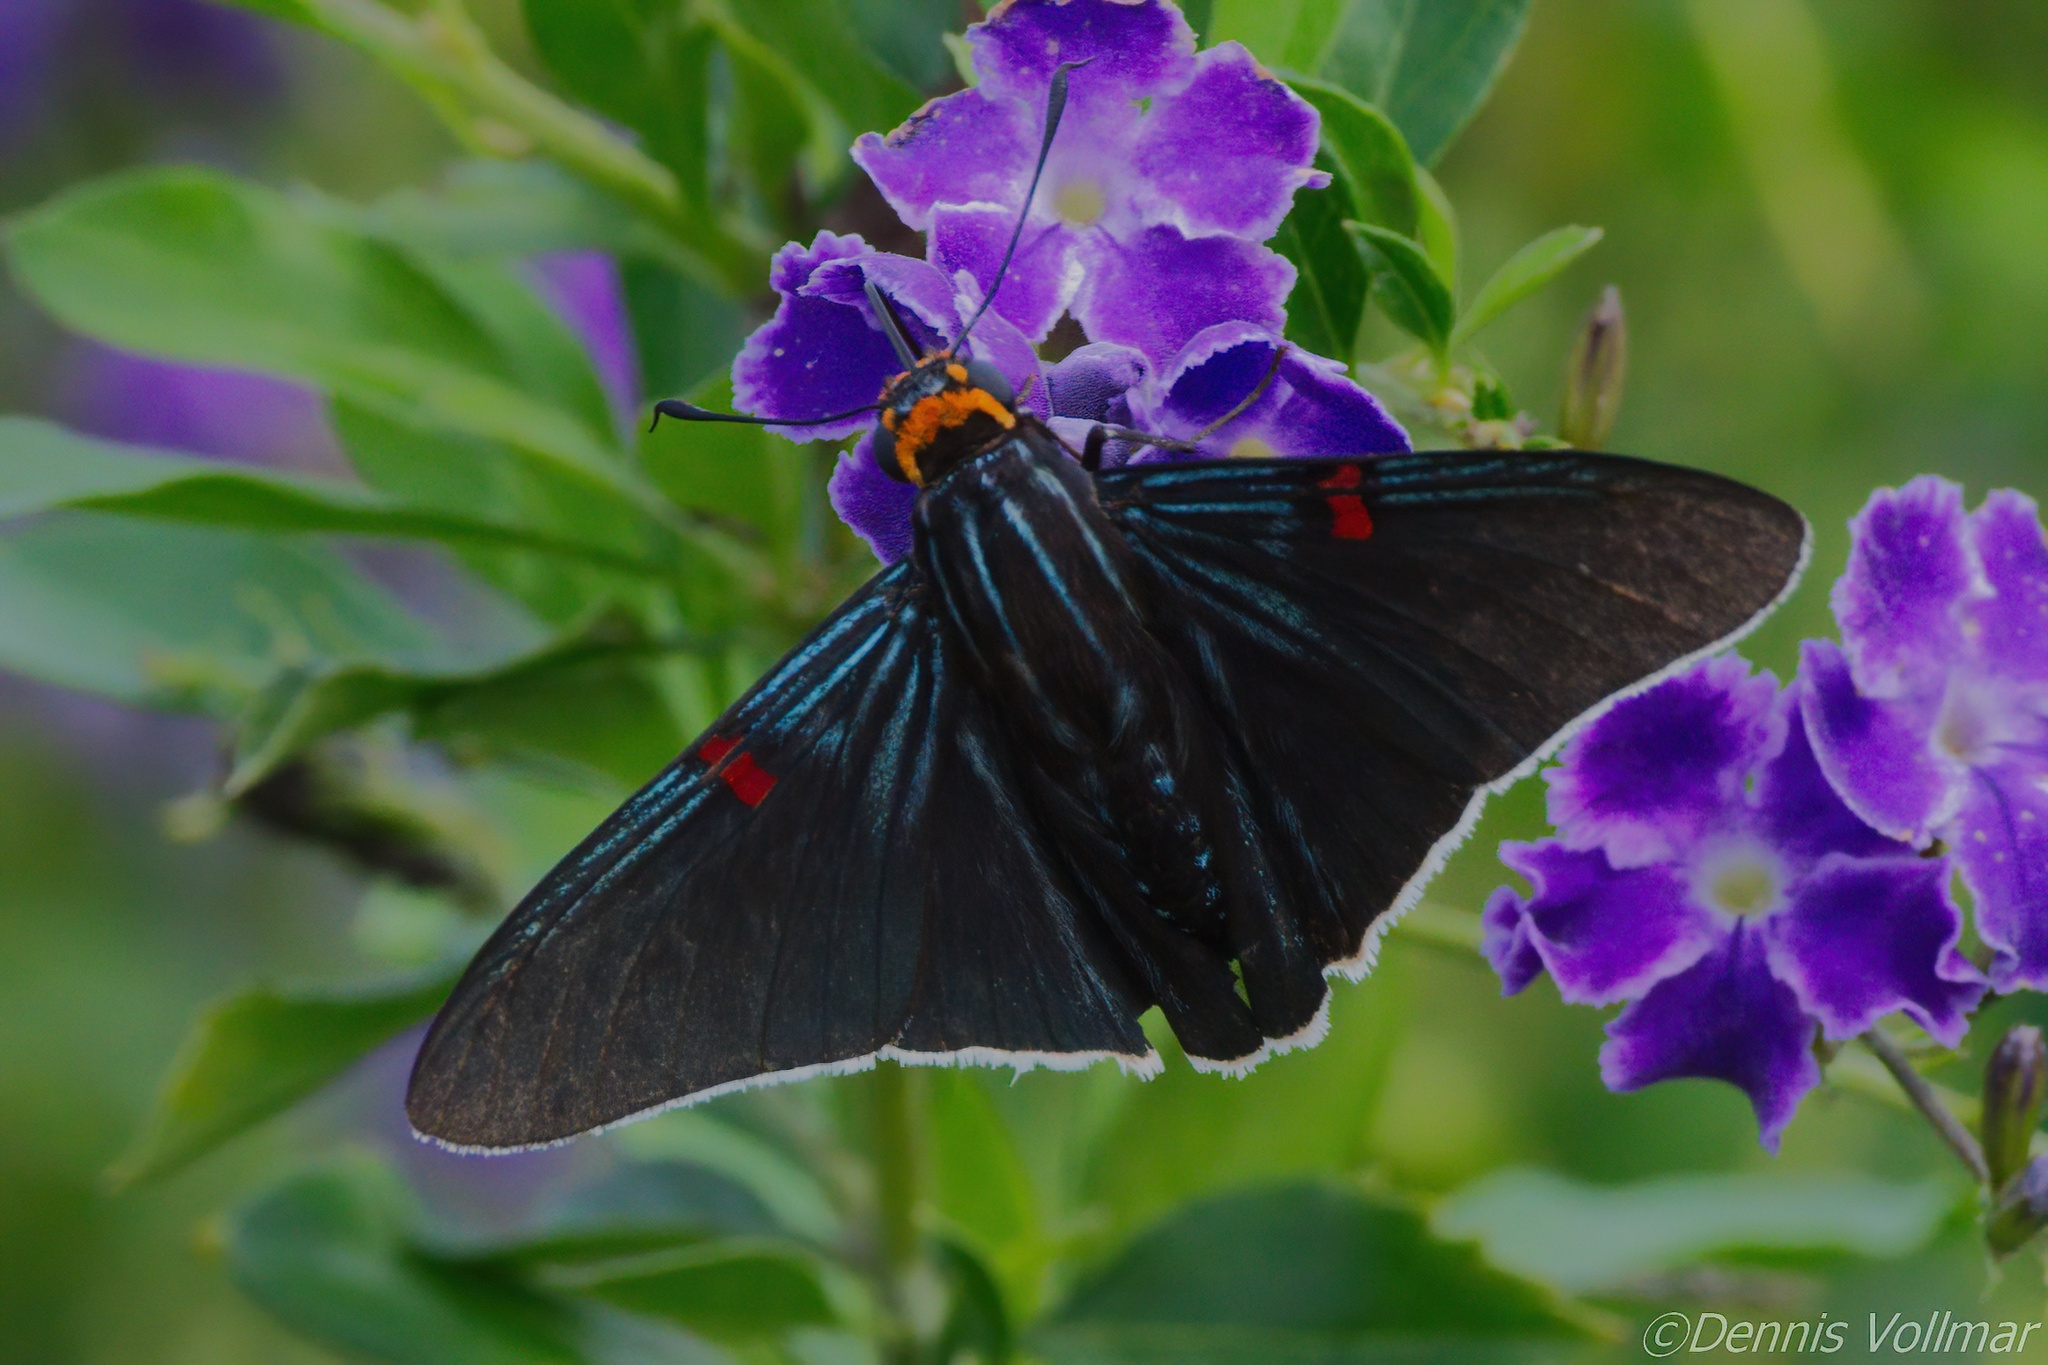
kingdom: Animalia
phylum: Arthropoda
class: Insecta
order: Lepidoptera
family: Hesperiidae
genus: Phocides
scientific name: Phocides lilea
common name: Guava skipper
